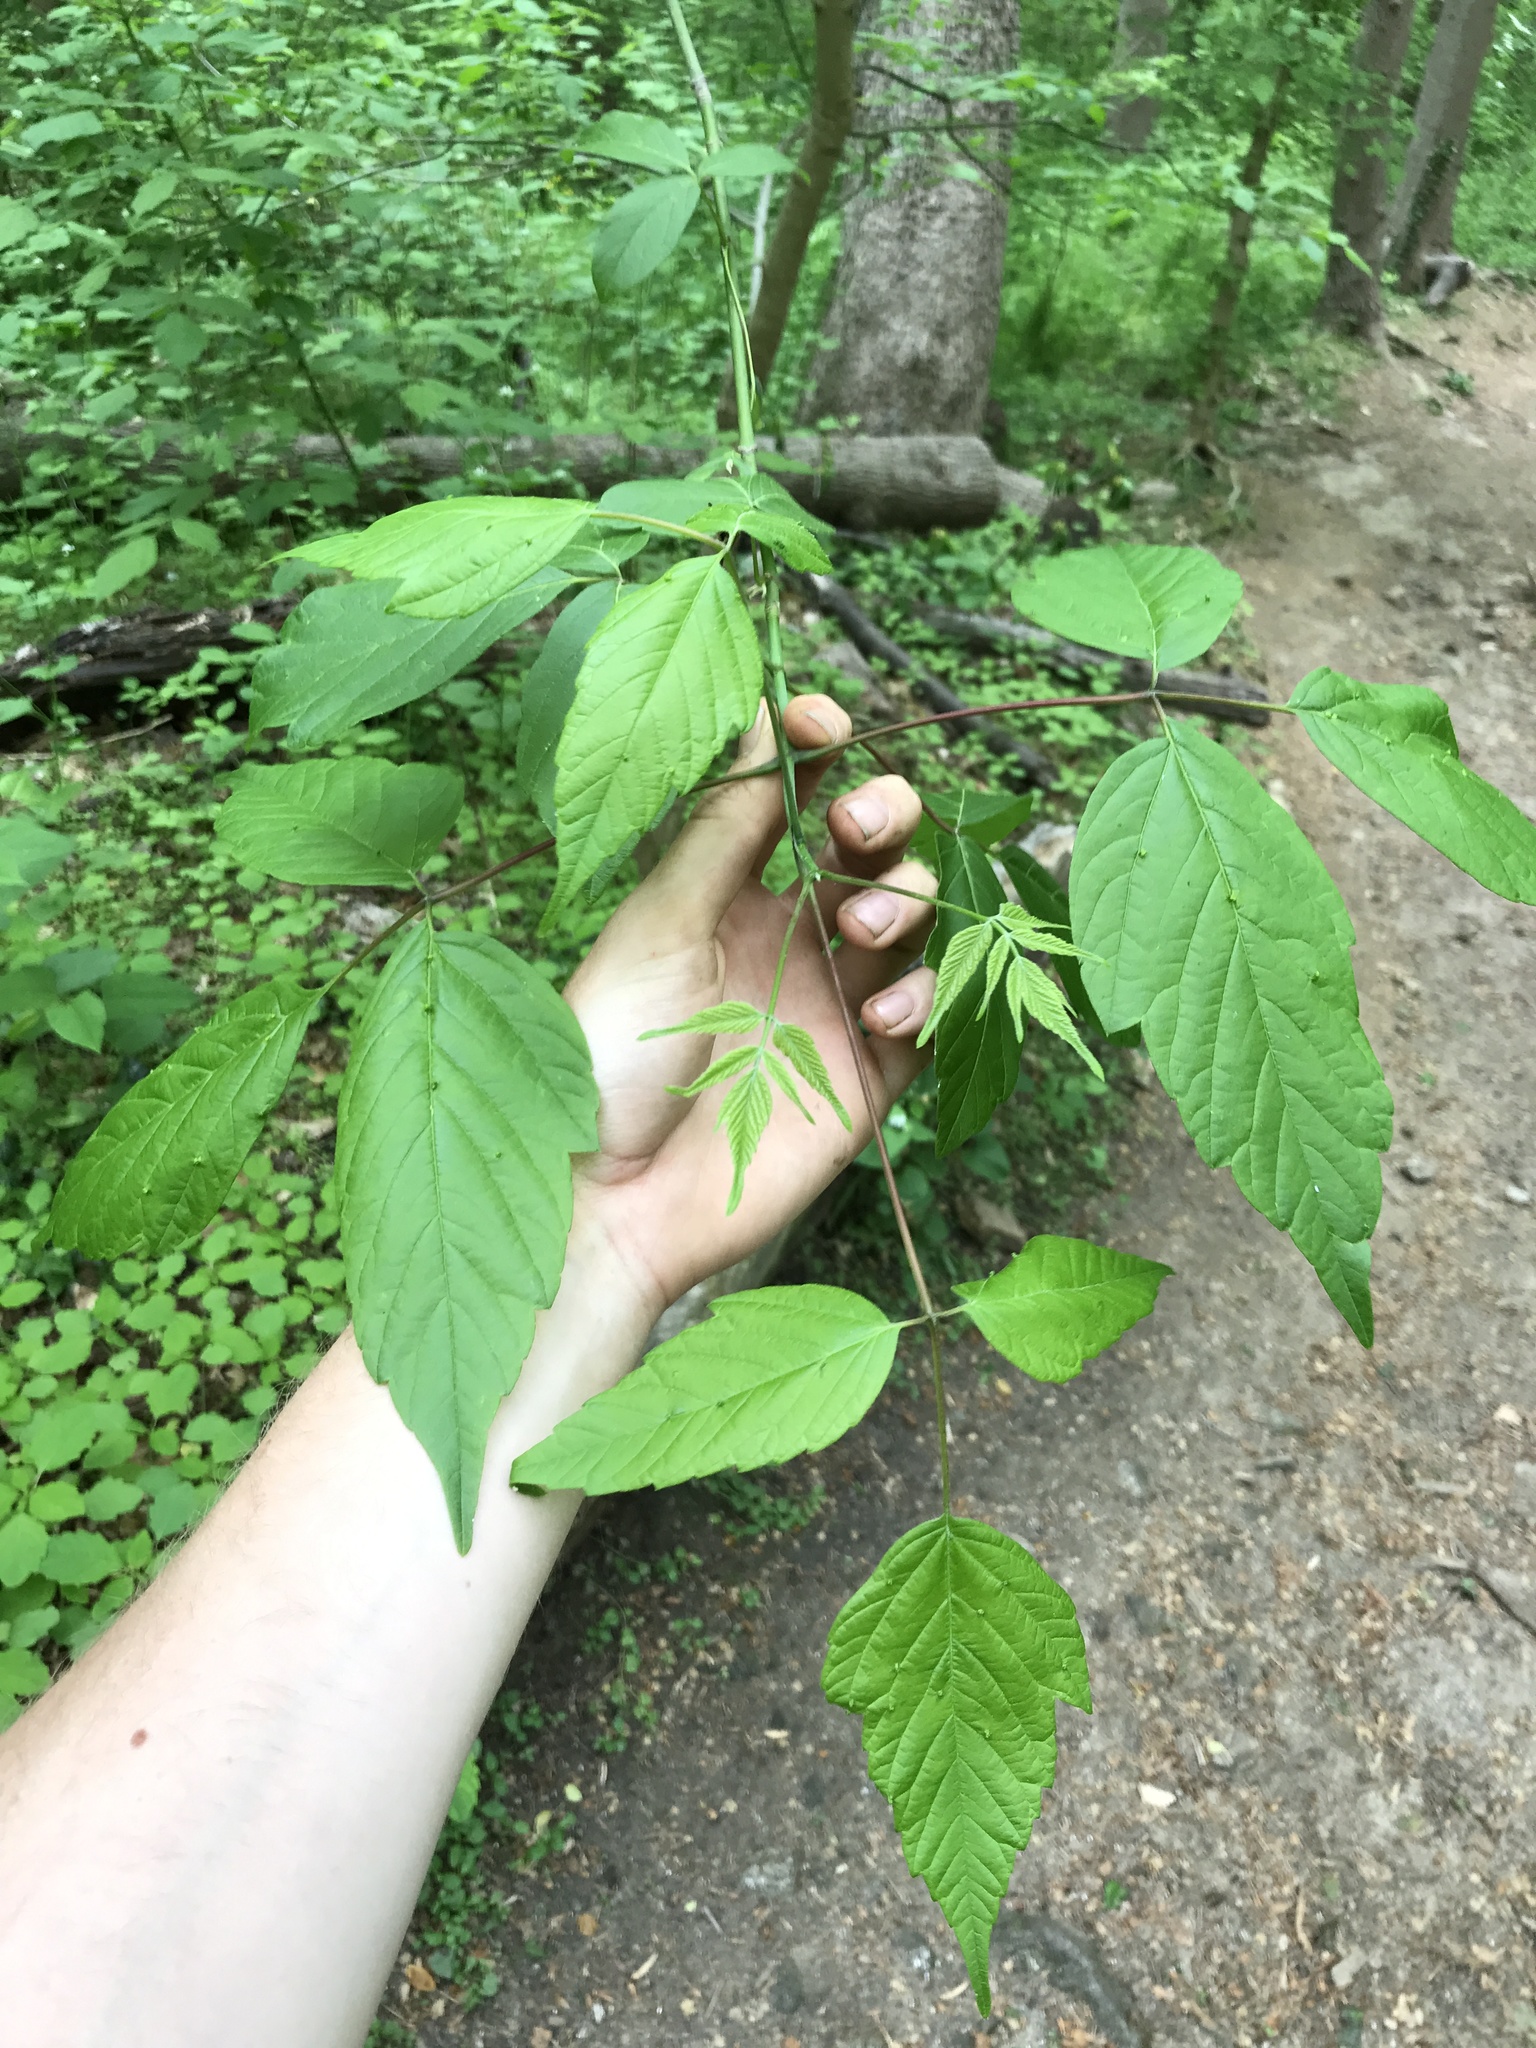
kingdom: Plantae
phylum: Tracheophyta
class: Magnoliopsida
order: Sapindales
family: Sapindaceae
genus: Acer
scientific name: Acer negundo
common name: Ashleaf maple
